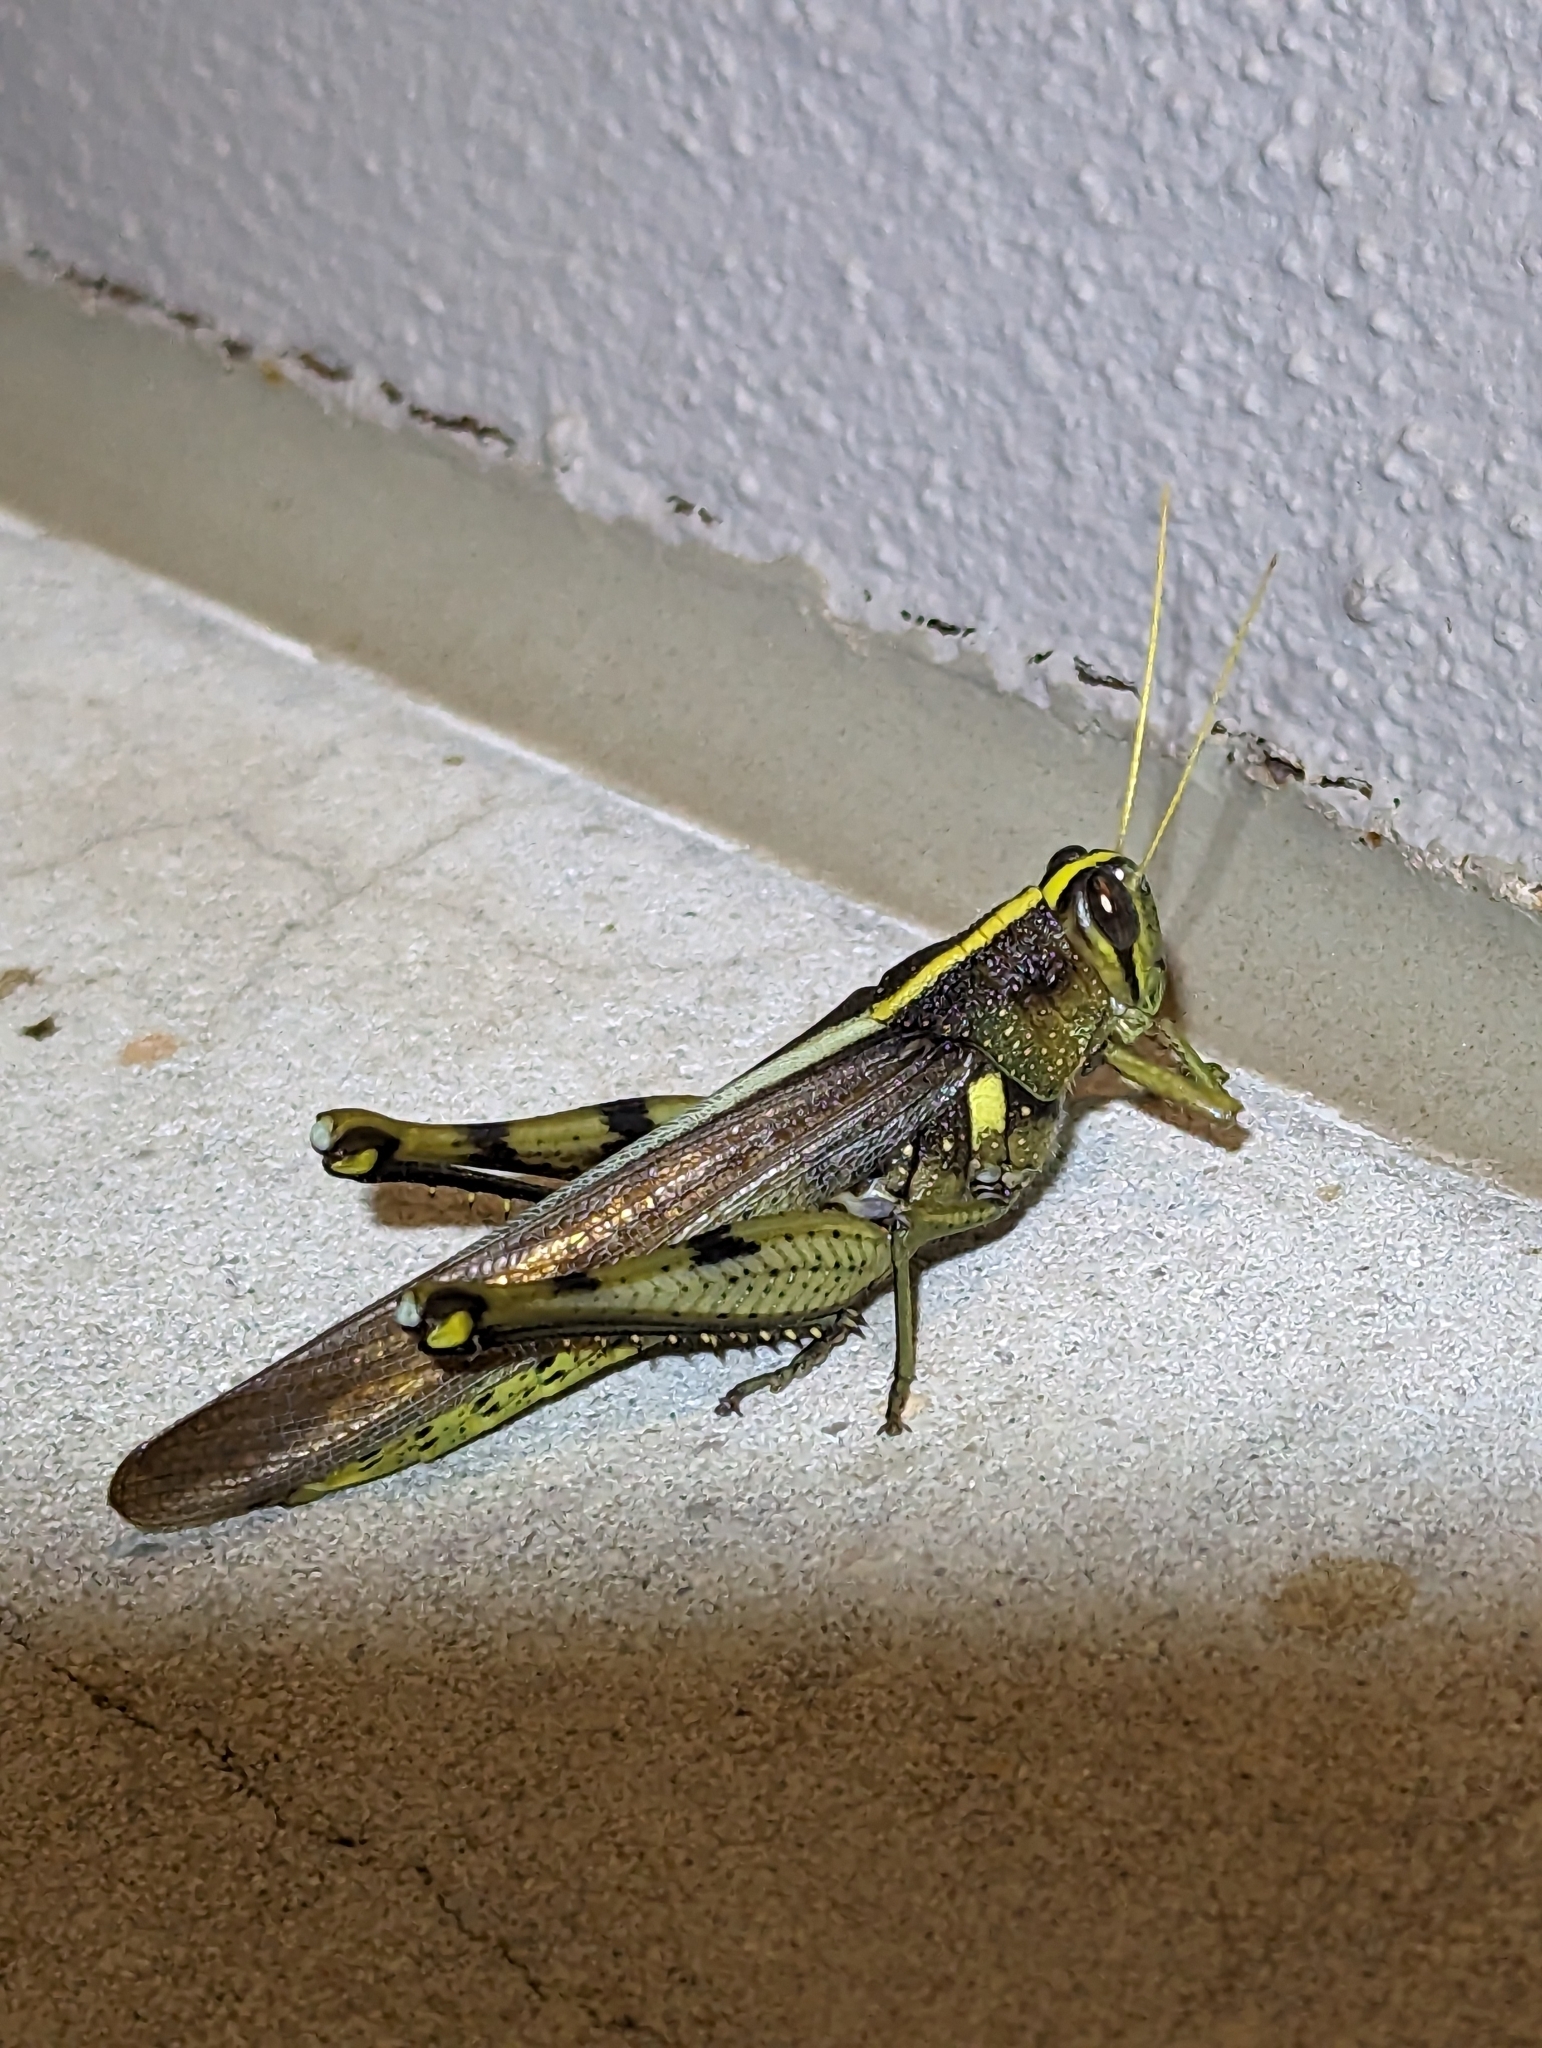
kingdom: Animalia
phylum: Arthropoda
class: Insecta
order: Orthoptera
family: Acrididae
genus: Schistocerca
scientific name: Schistocerca obscura
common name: Obscure bird grasshopper
